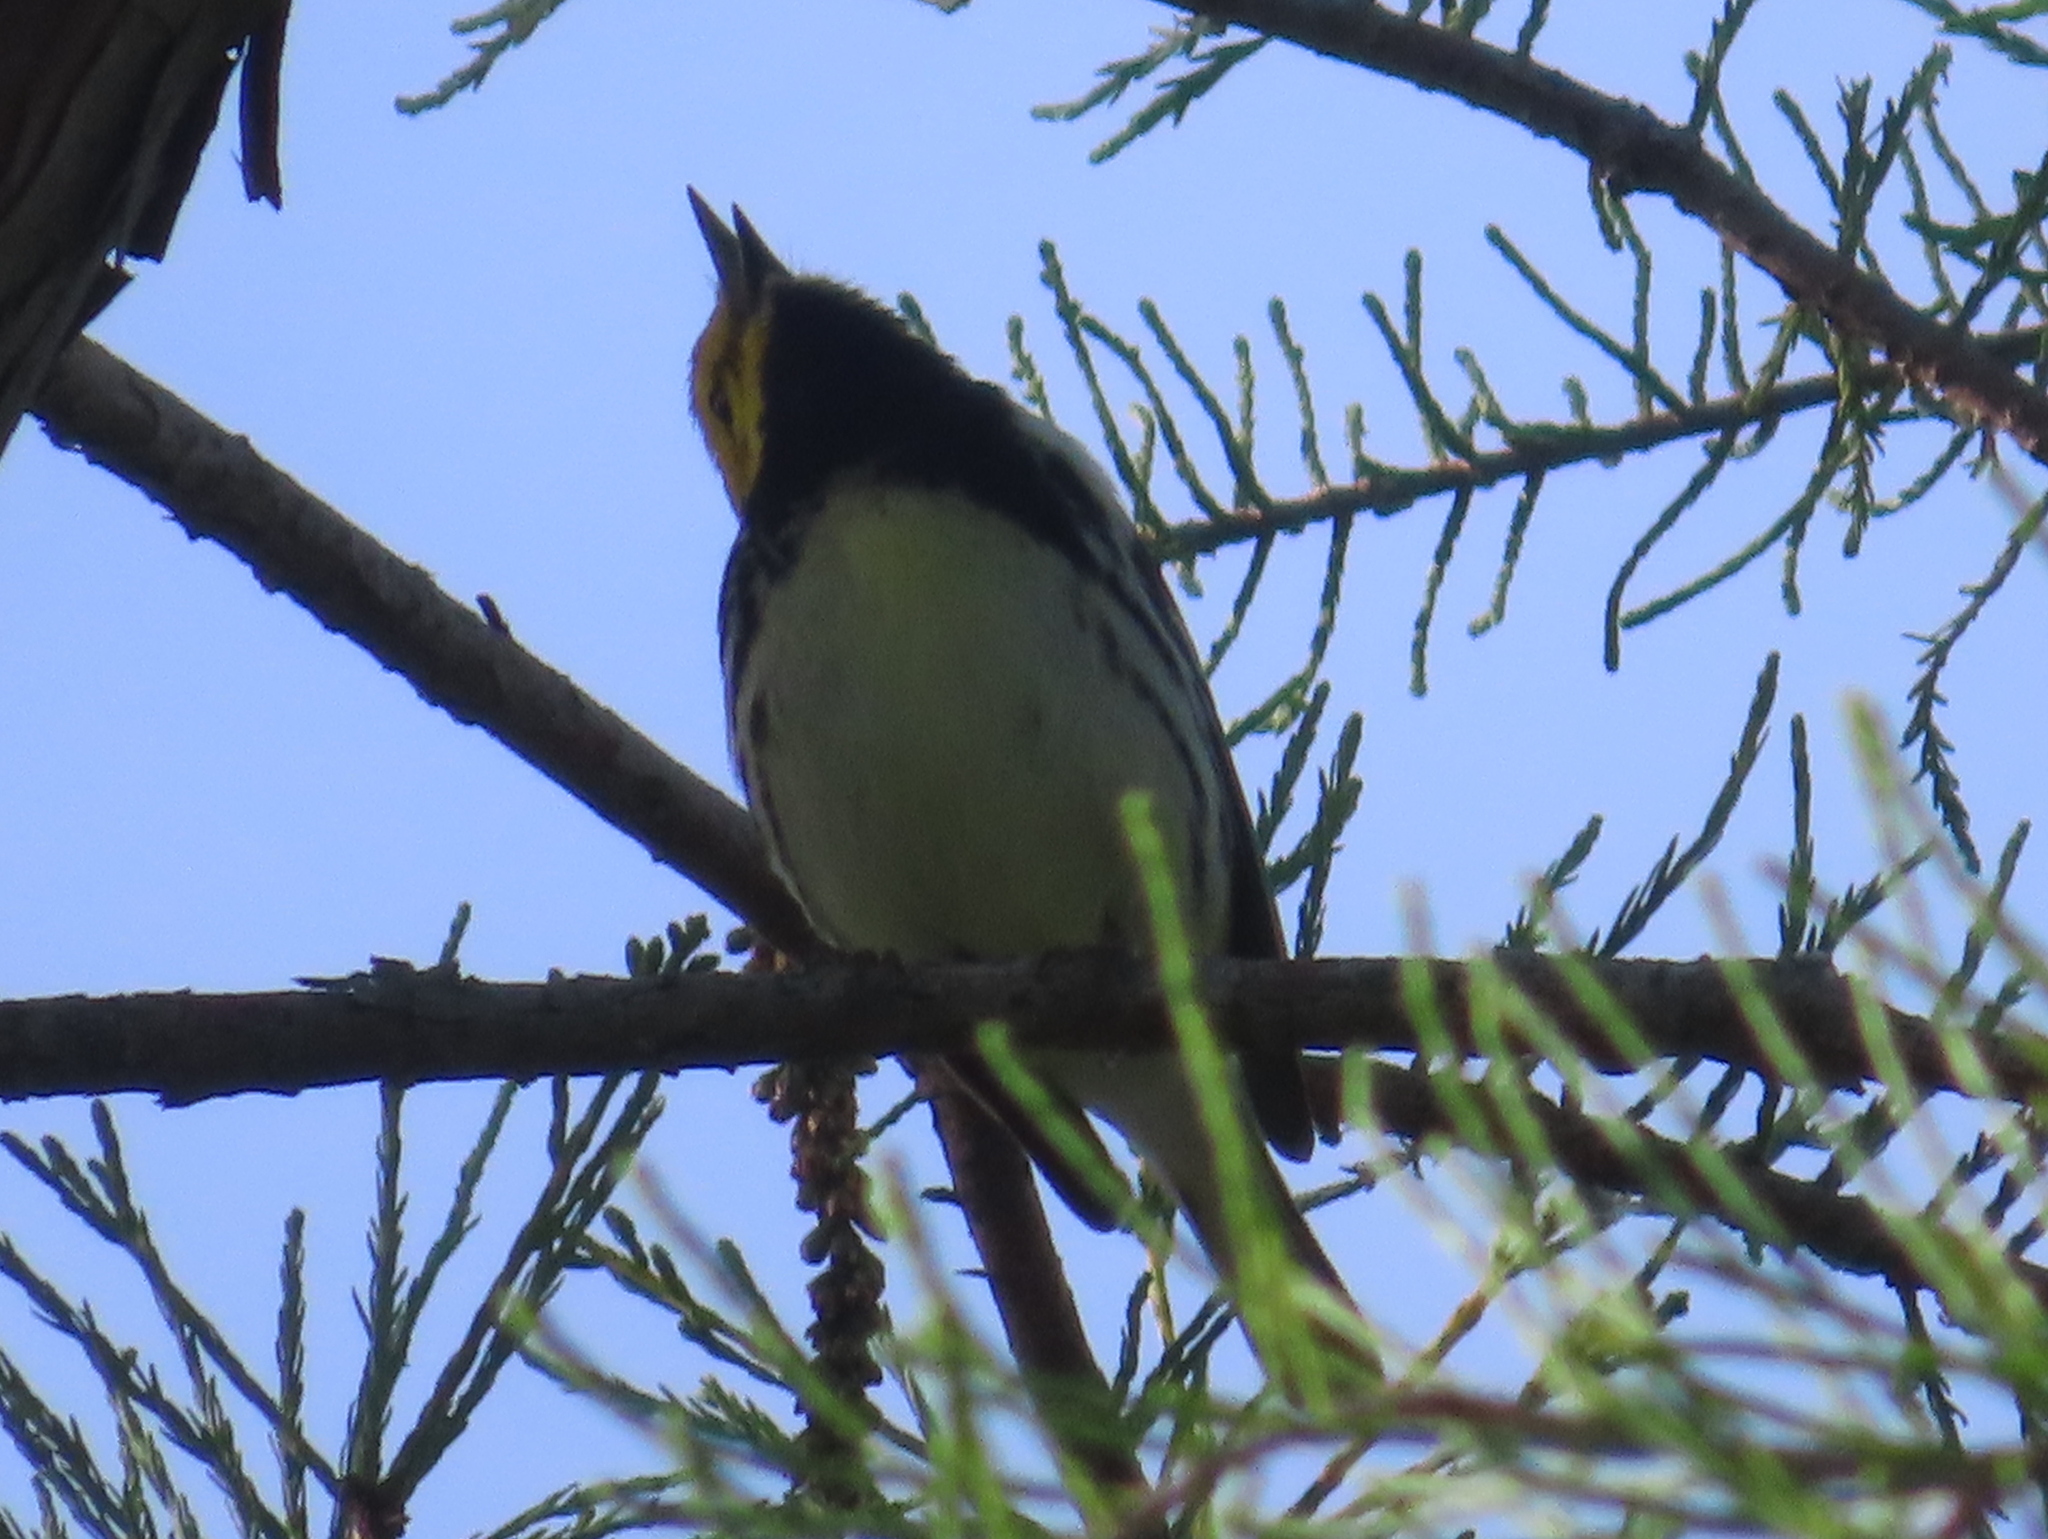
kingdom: Animalia
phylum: Chordata
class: Aves
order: Passeriformes
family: Parulidae
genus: Setophaga
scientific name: Setophaga virens
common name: Black-throated green warbler
